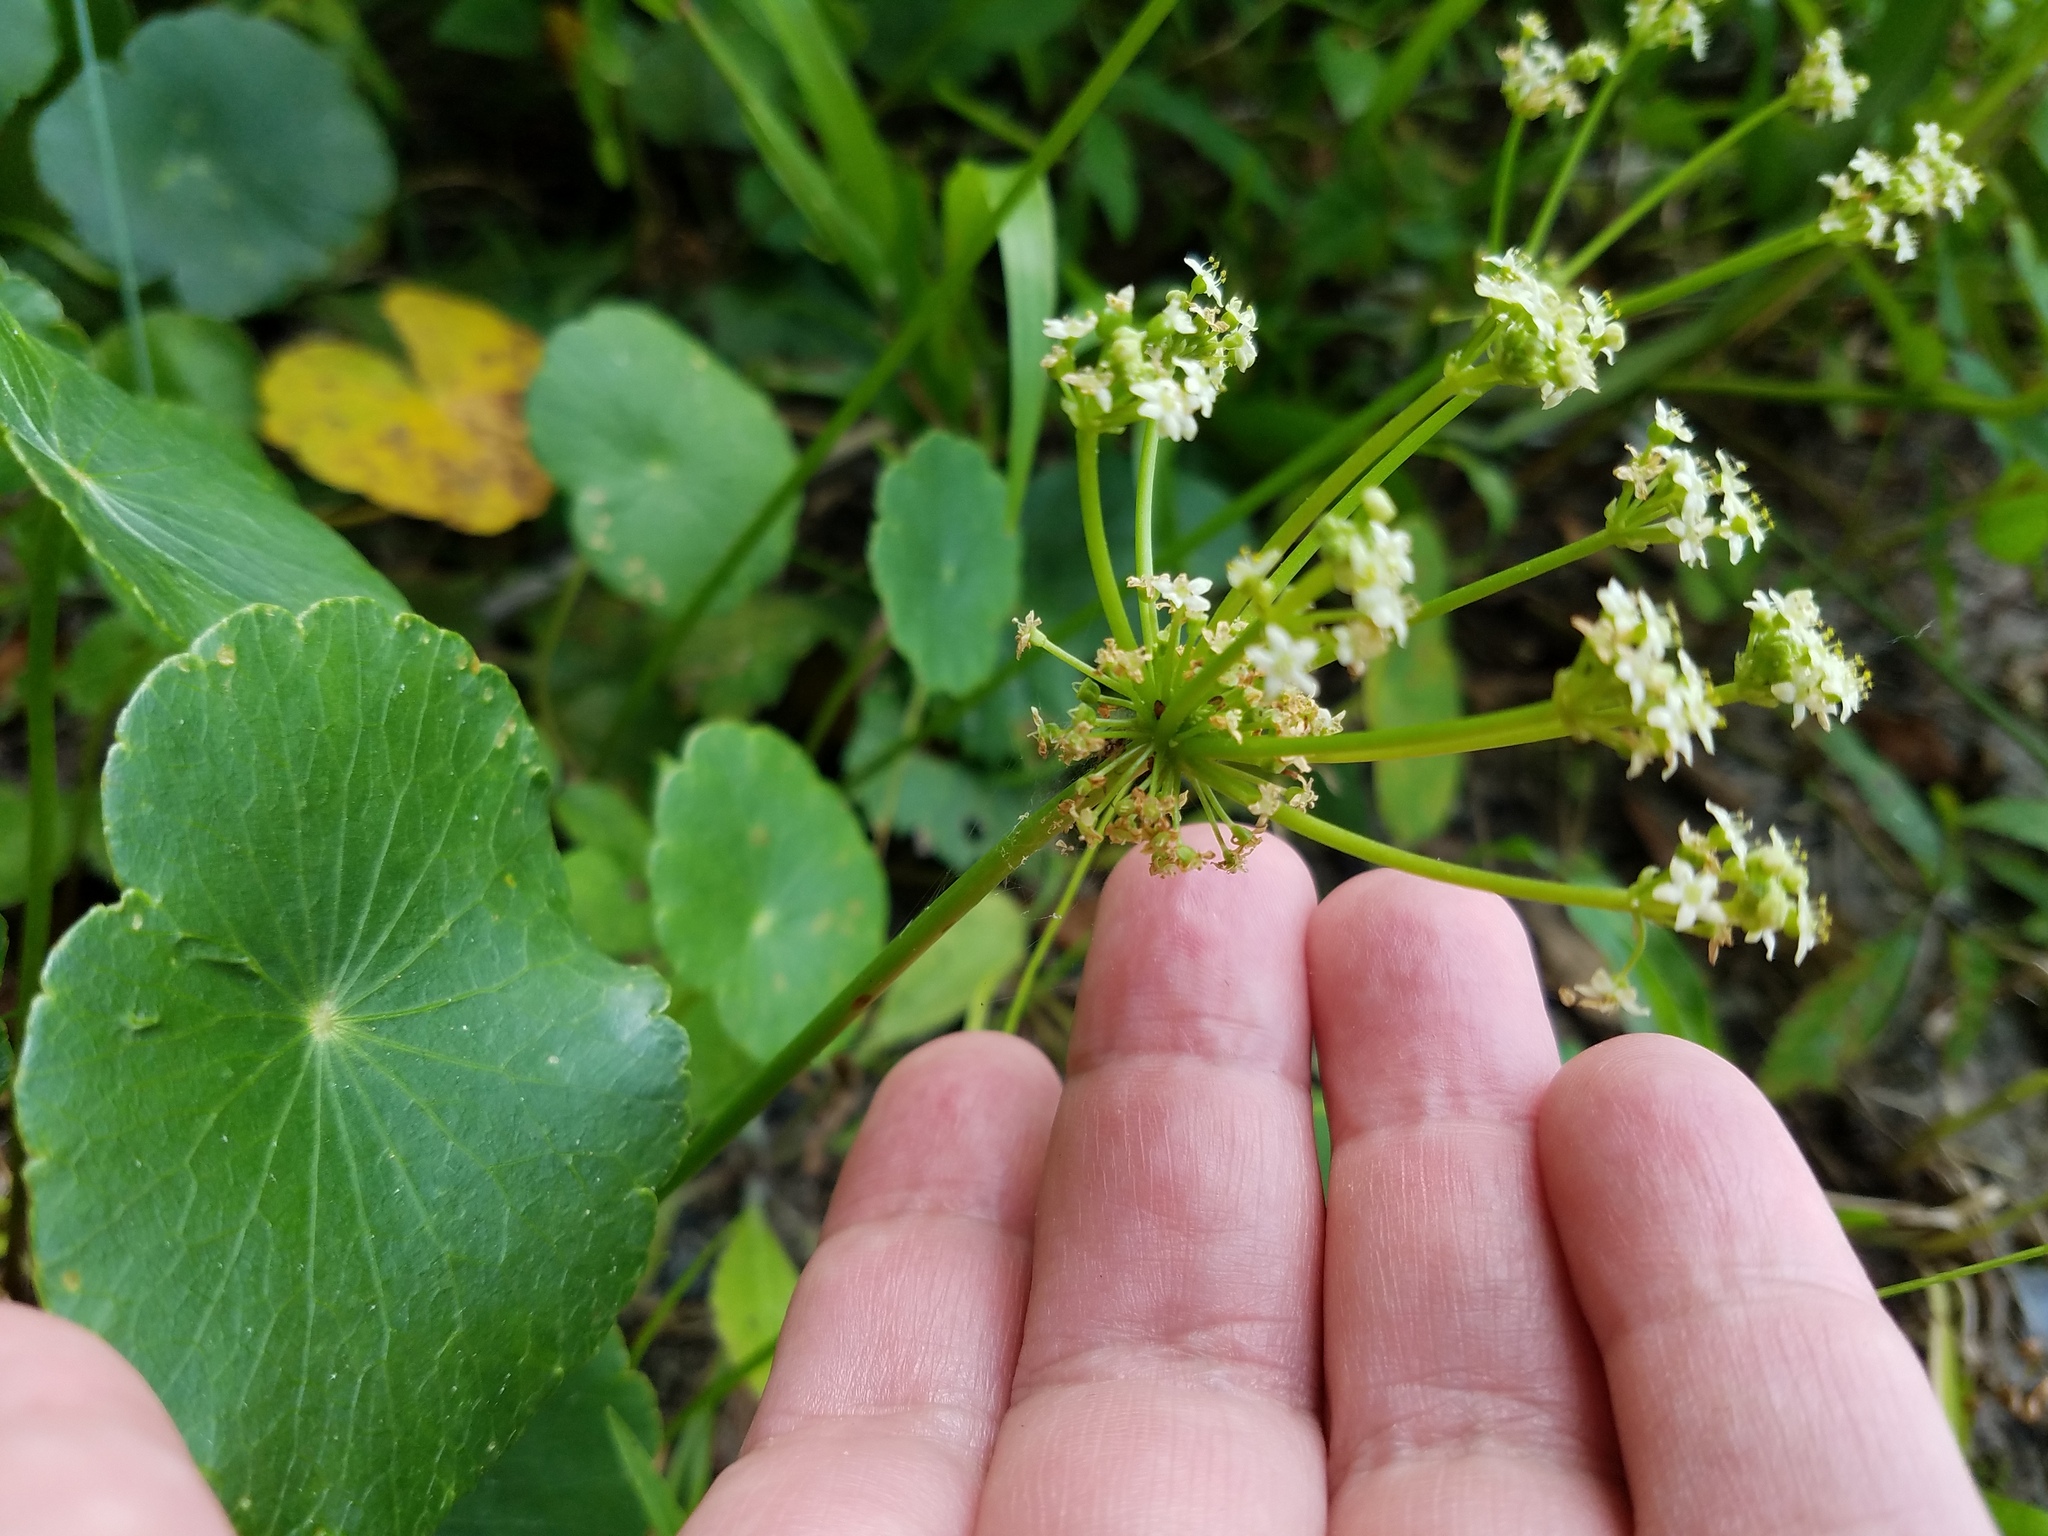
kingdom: Plantae
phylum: Tracheophyta
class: Magnoliopsida
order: Apiales
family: Araliaceae
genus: Hydrocotyle
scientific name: Hydrocotyle bonariensis
